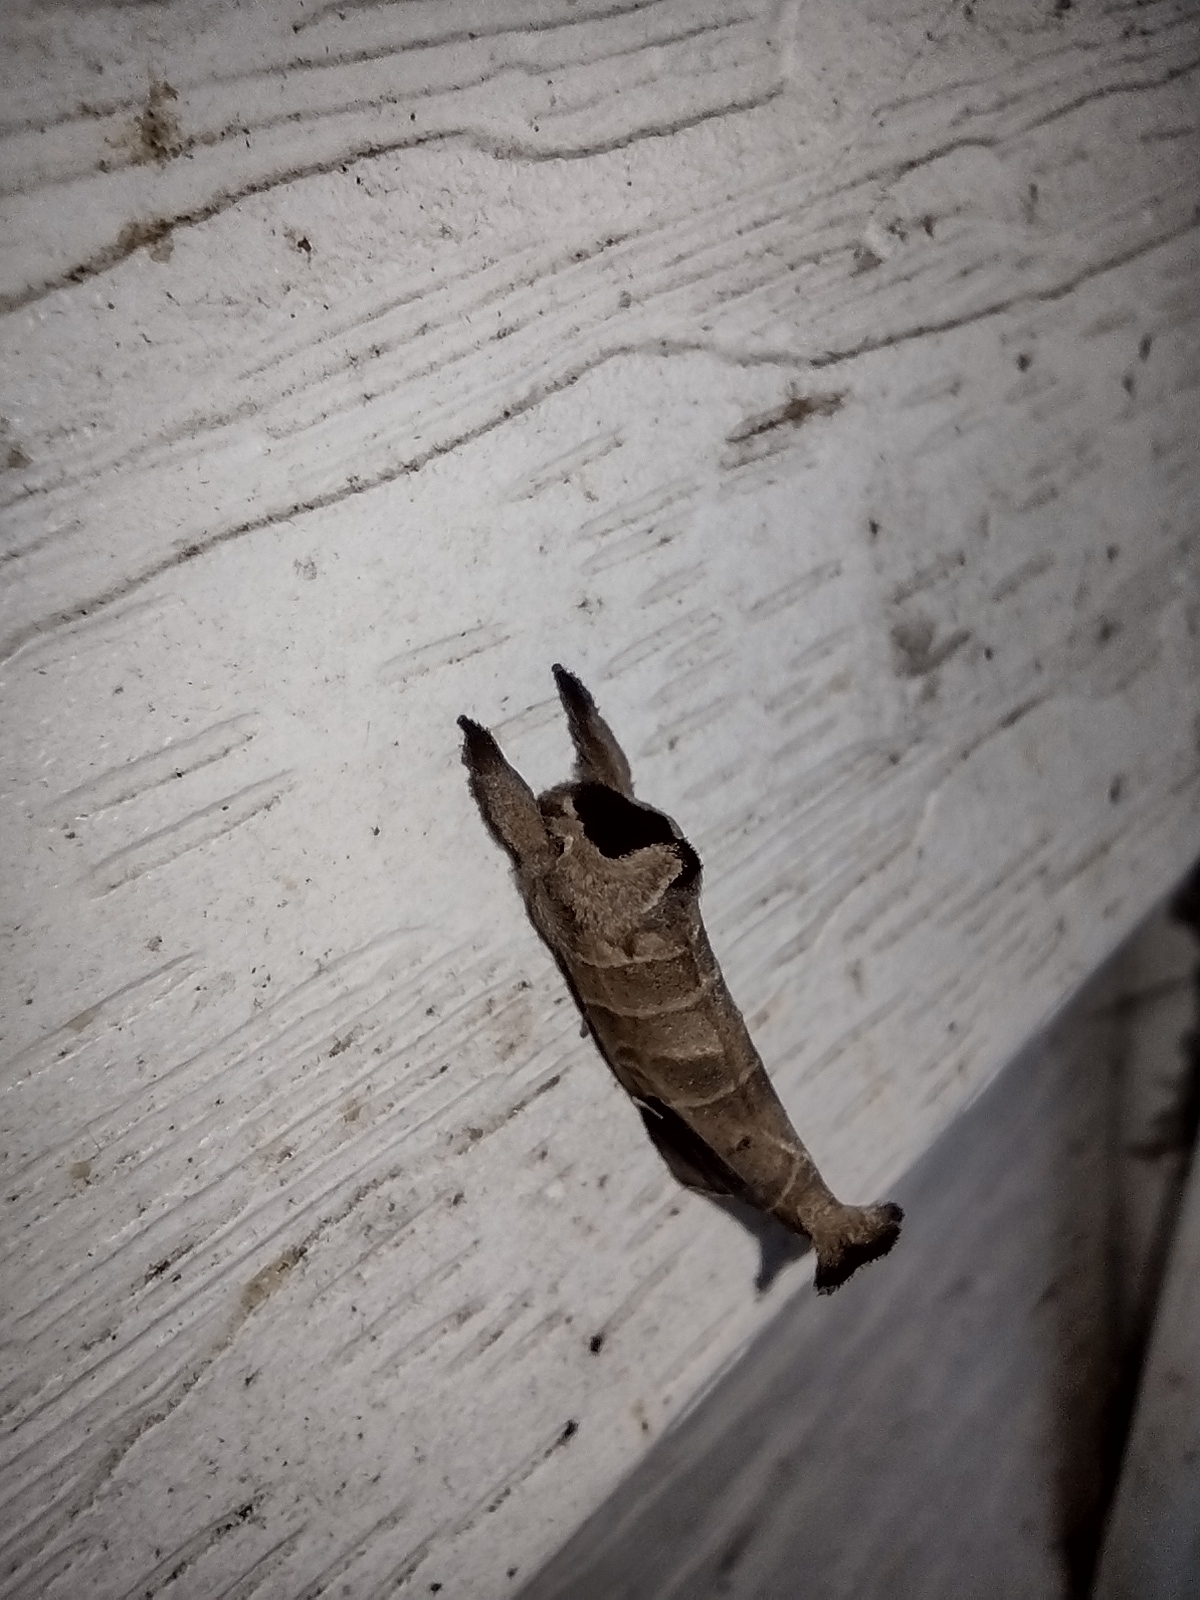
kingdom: Animalia
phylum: Arthropoda
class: Insecta
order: Lepidoptera
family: Notodontidae
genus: Clostera
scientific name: Clostera albosigma
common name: Sigmoid prominent
